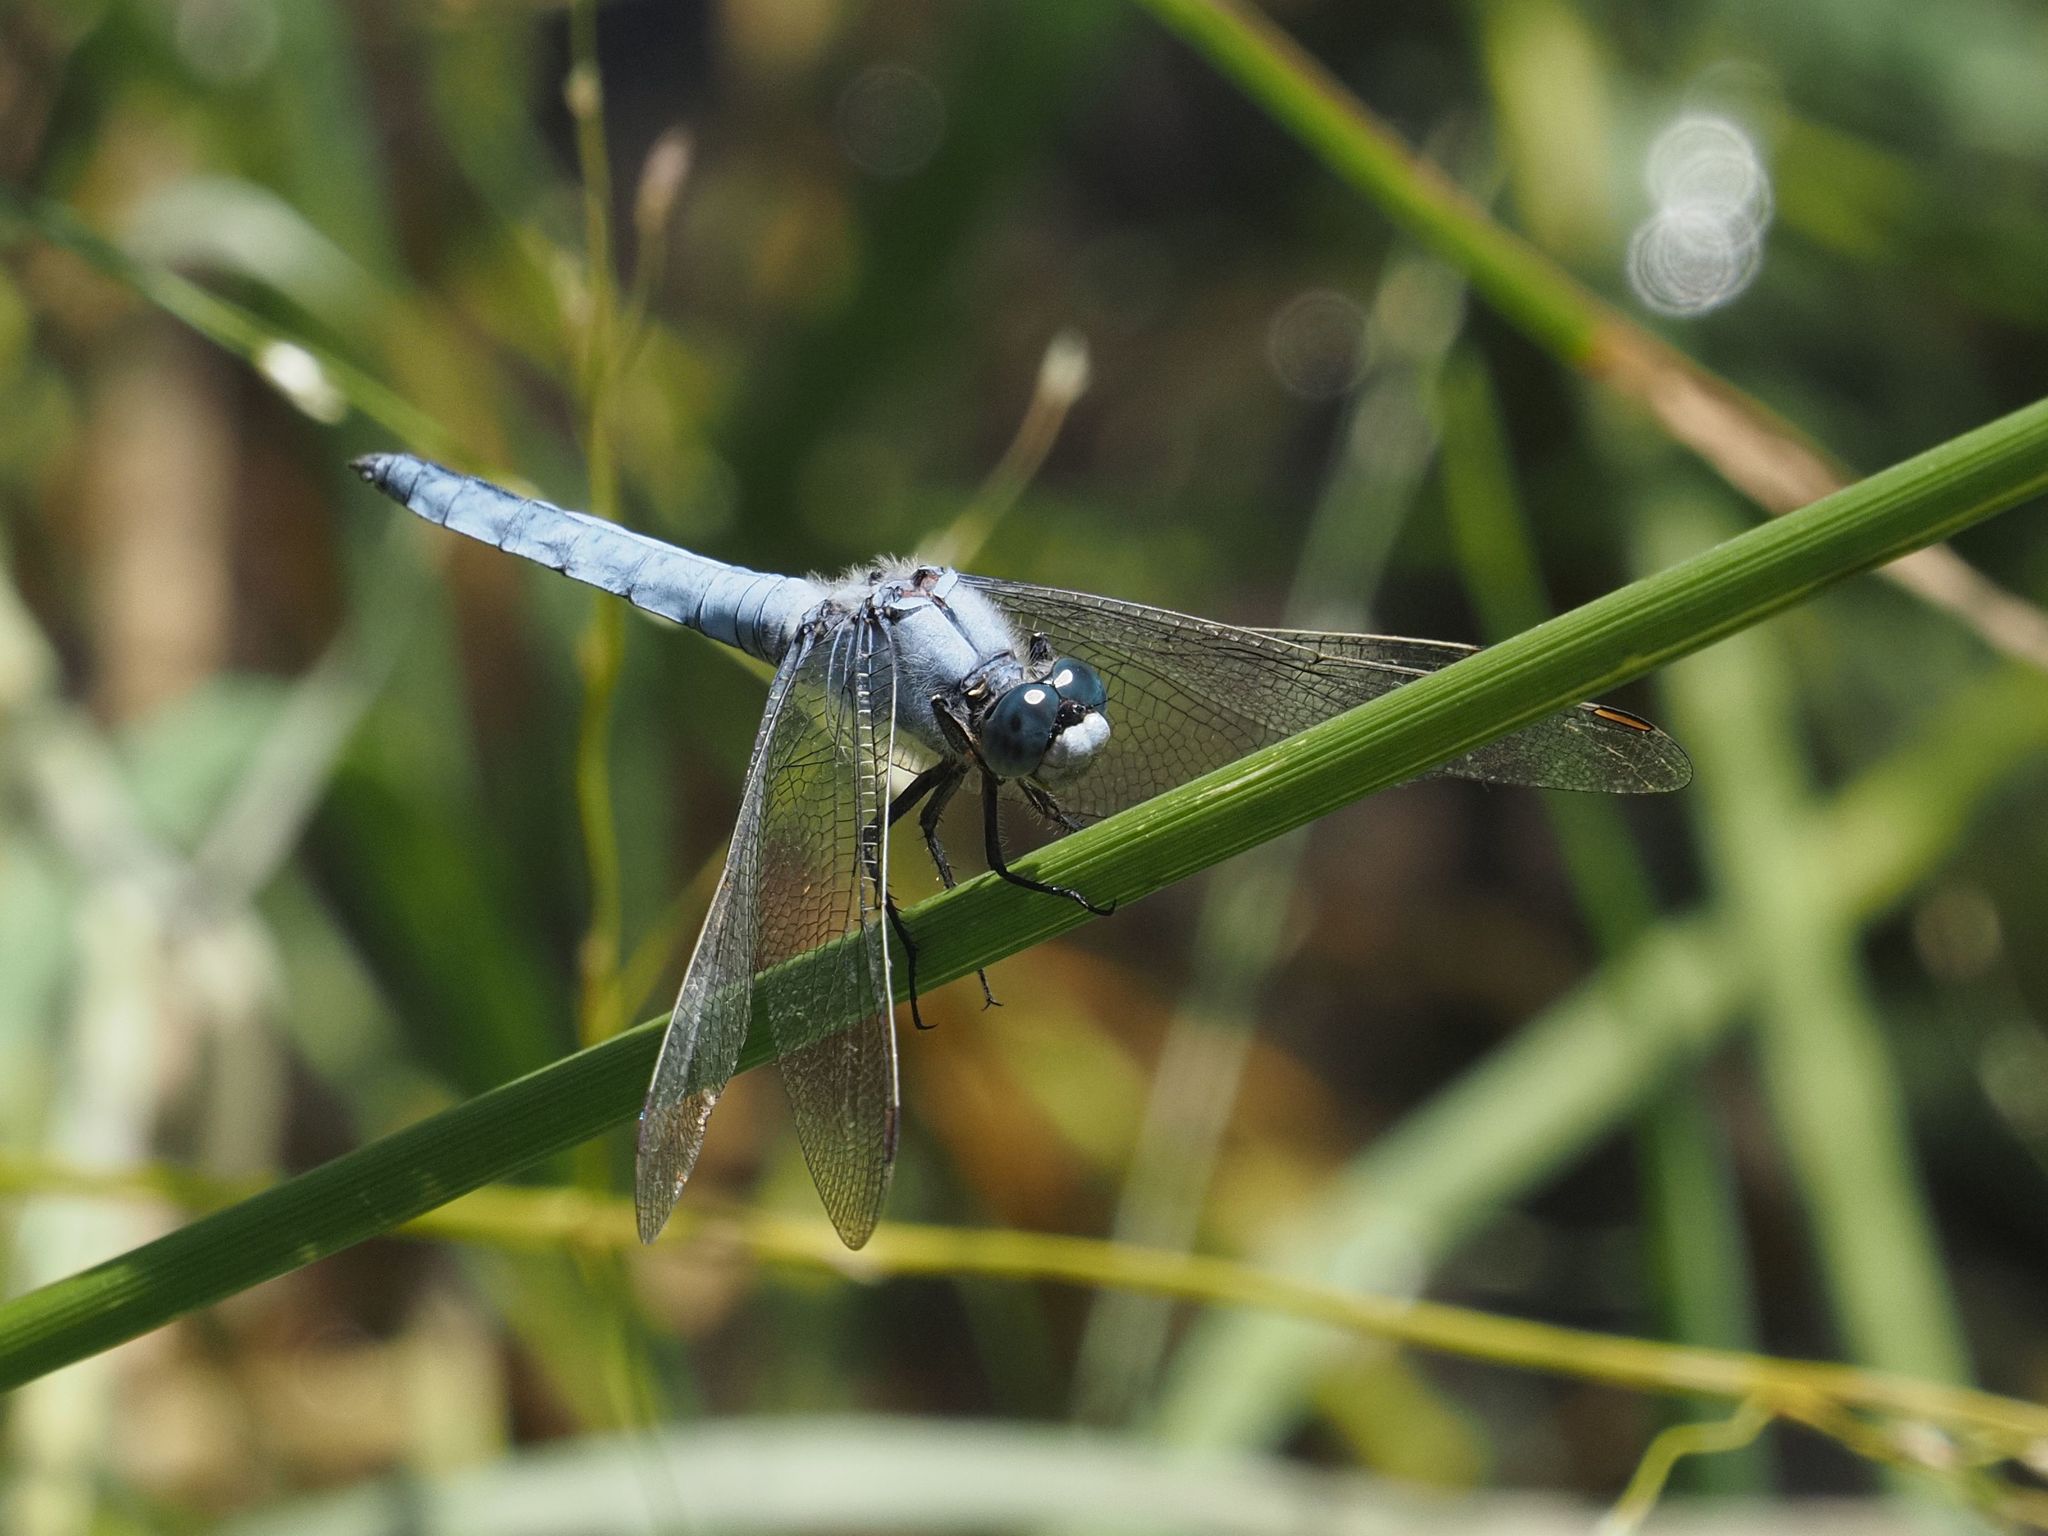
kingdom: Animalia
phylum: Arthropoda
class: Insecta
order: Odonata
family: Libellulidae
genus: Orthetrum
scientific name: Orthetrum brunneum
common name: Southern skimmer
